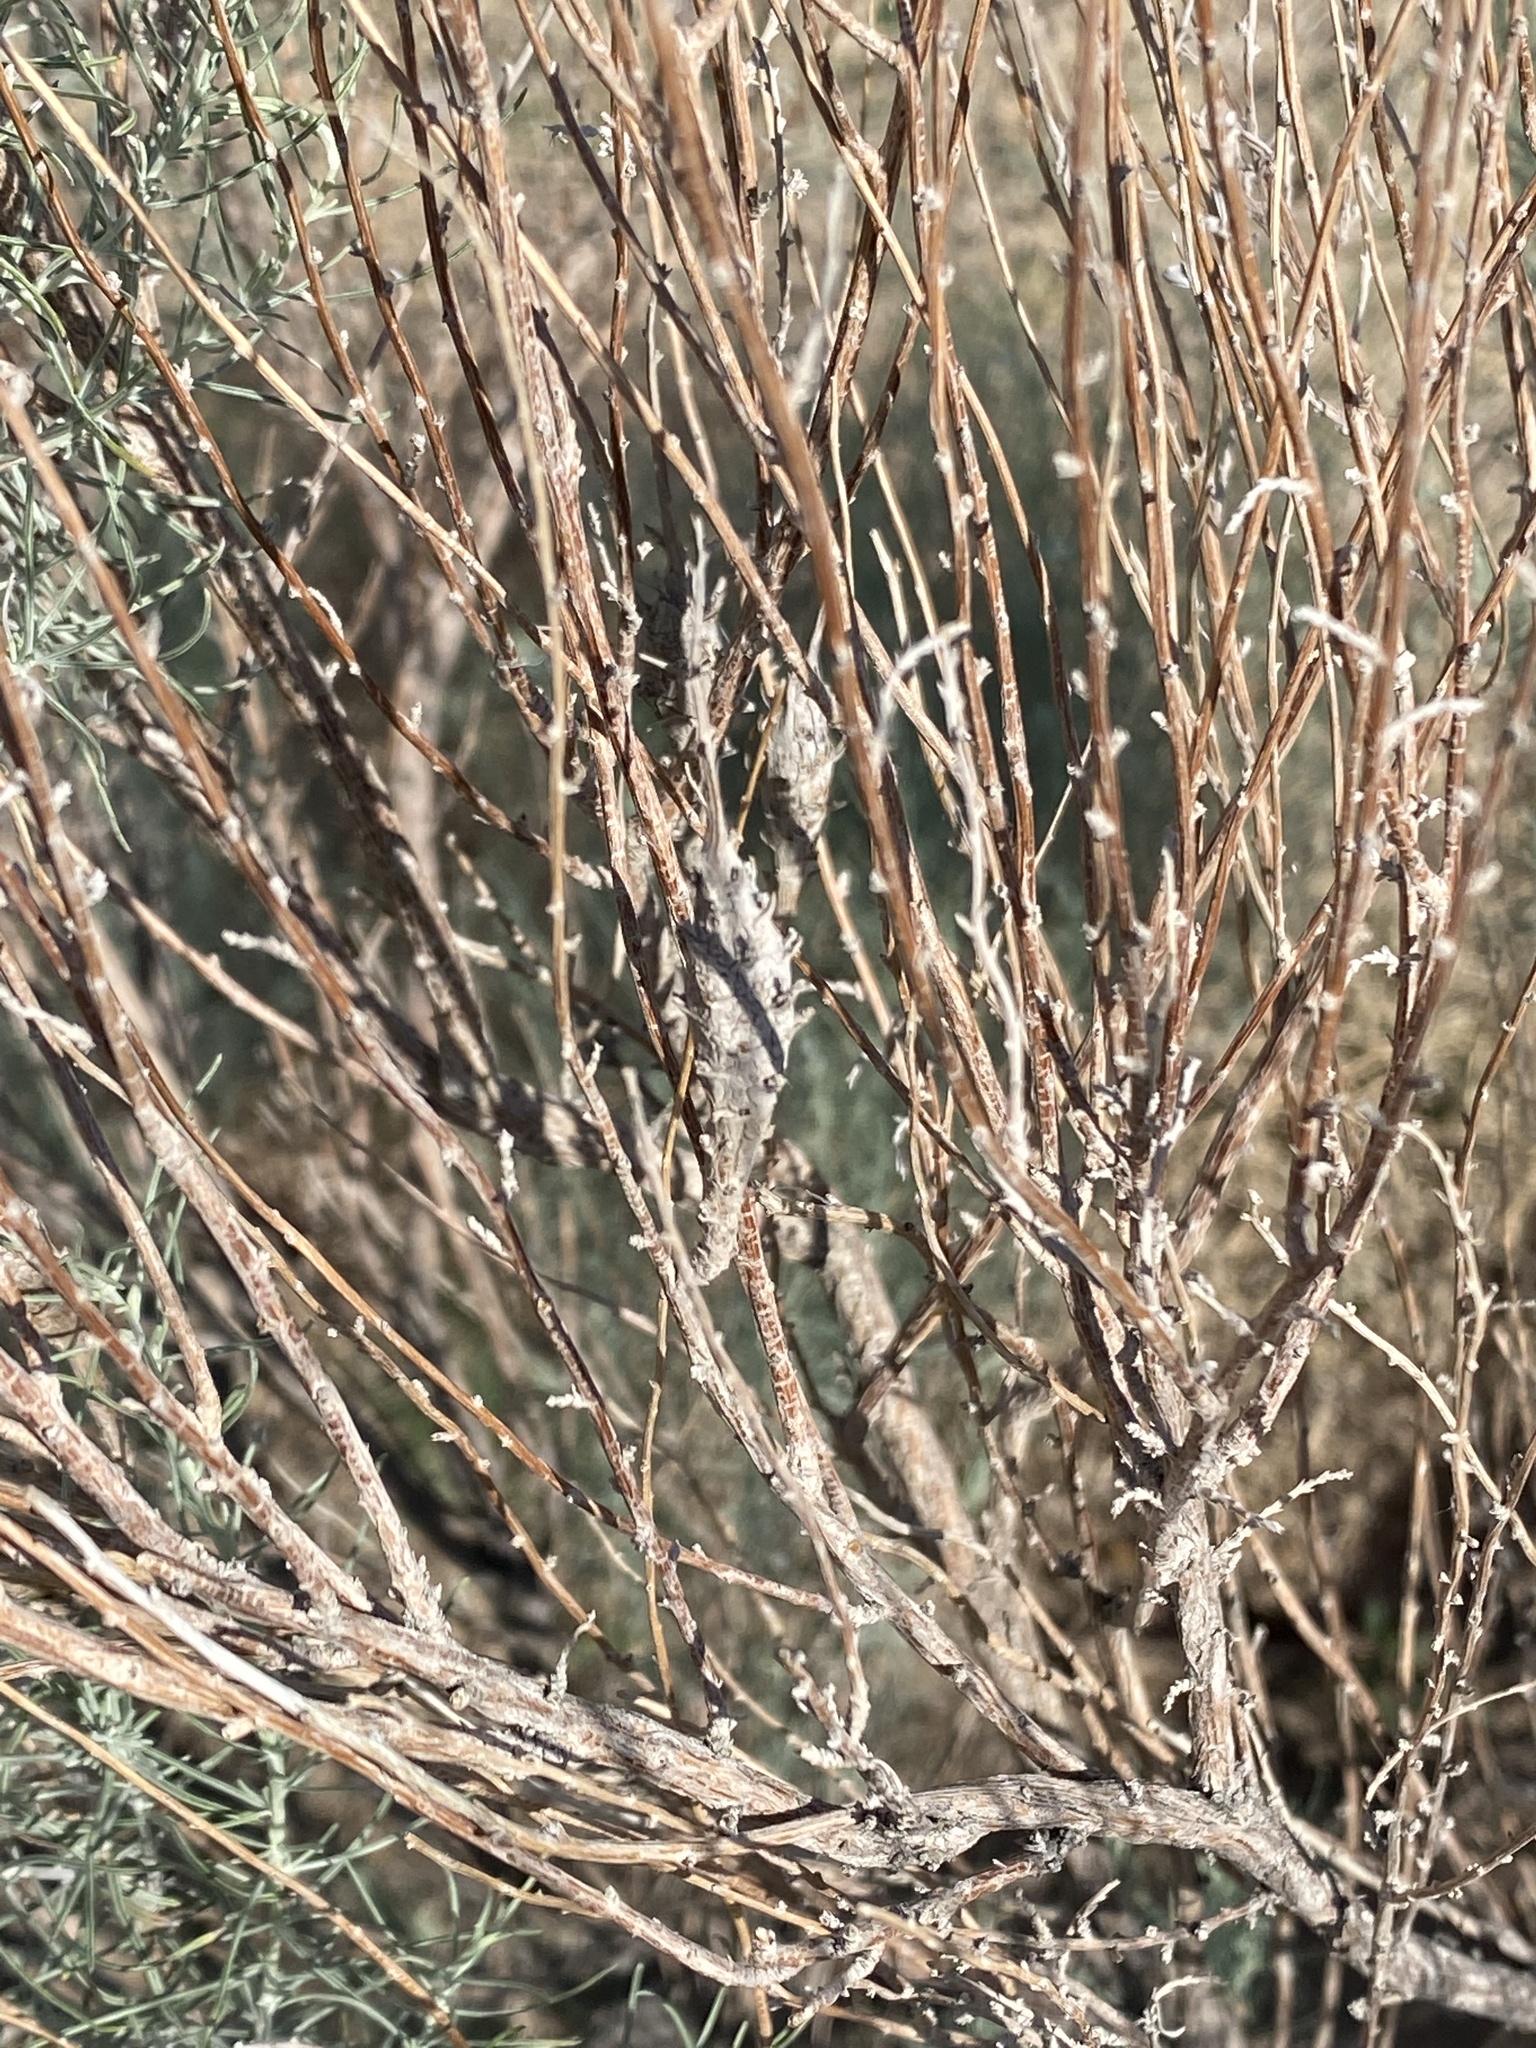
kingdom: Animalia
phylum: Arthropoda
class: Insecta
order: Diptera
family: Tephritidae
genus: Eutreta
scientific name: Eutreta diana
